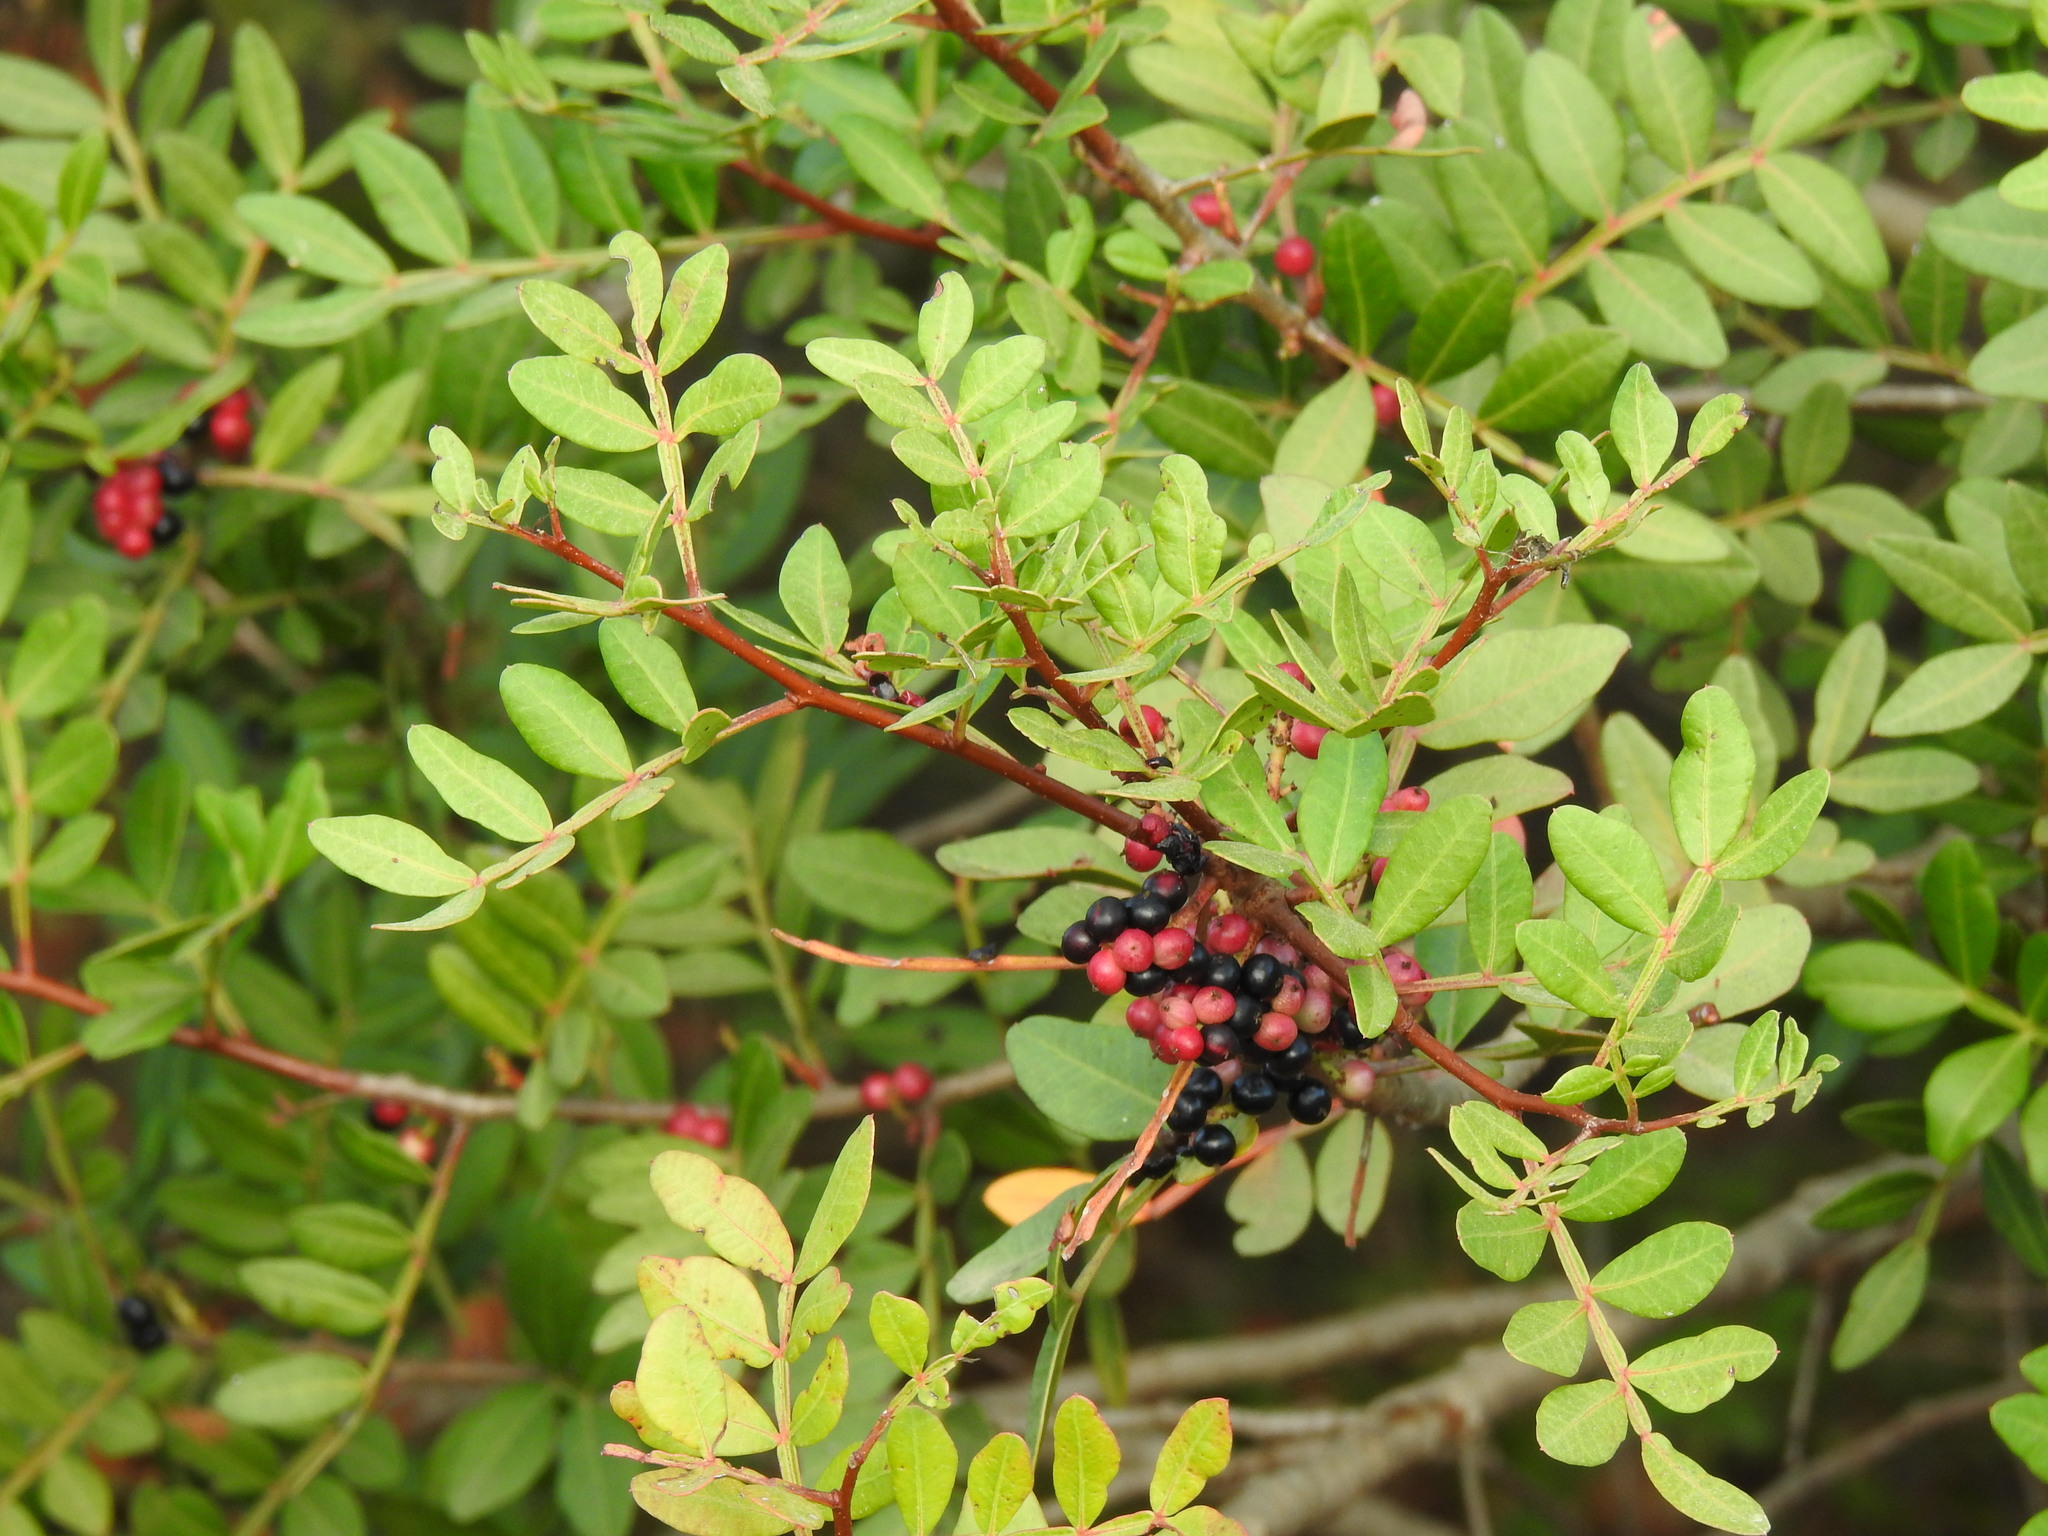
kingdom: Plantae
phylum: Tracheophyta
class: Magnoliopsida
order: Sapindales
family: Anacardiaceae
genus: Pistacia
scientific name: Pistacia lentiscus
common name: Lentisk
